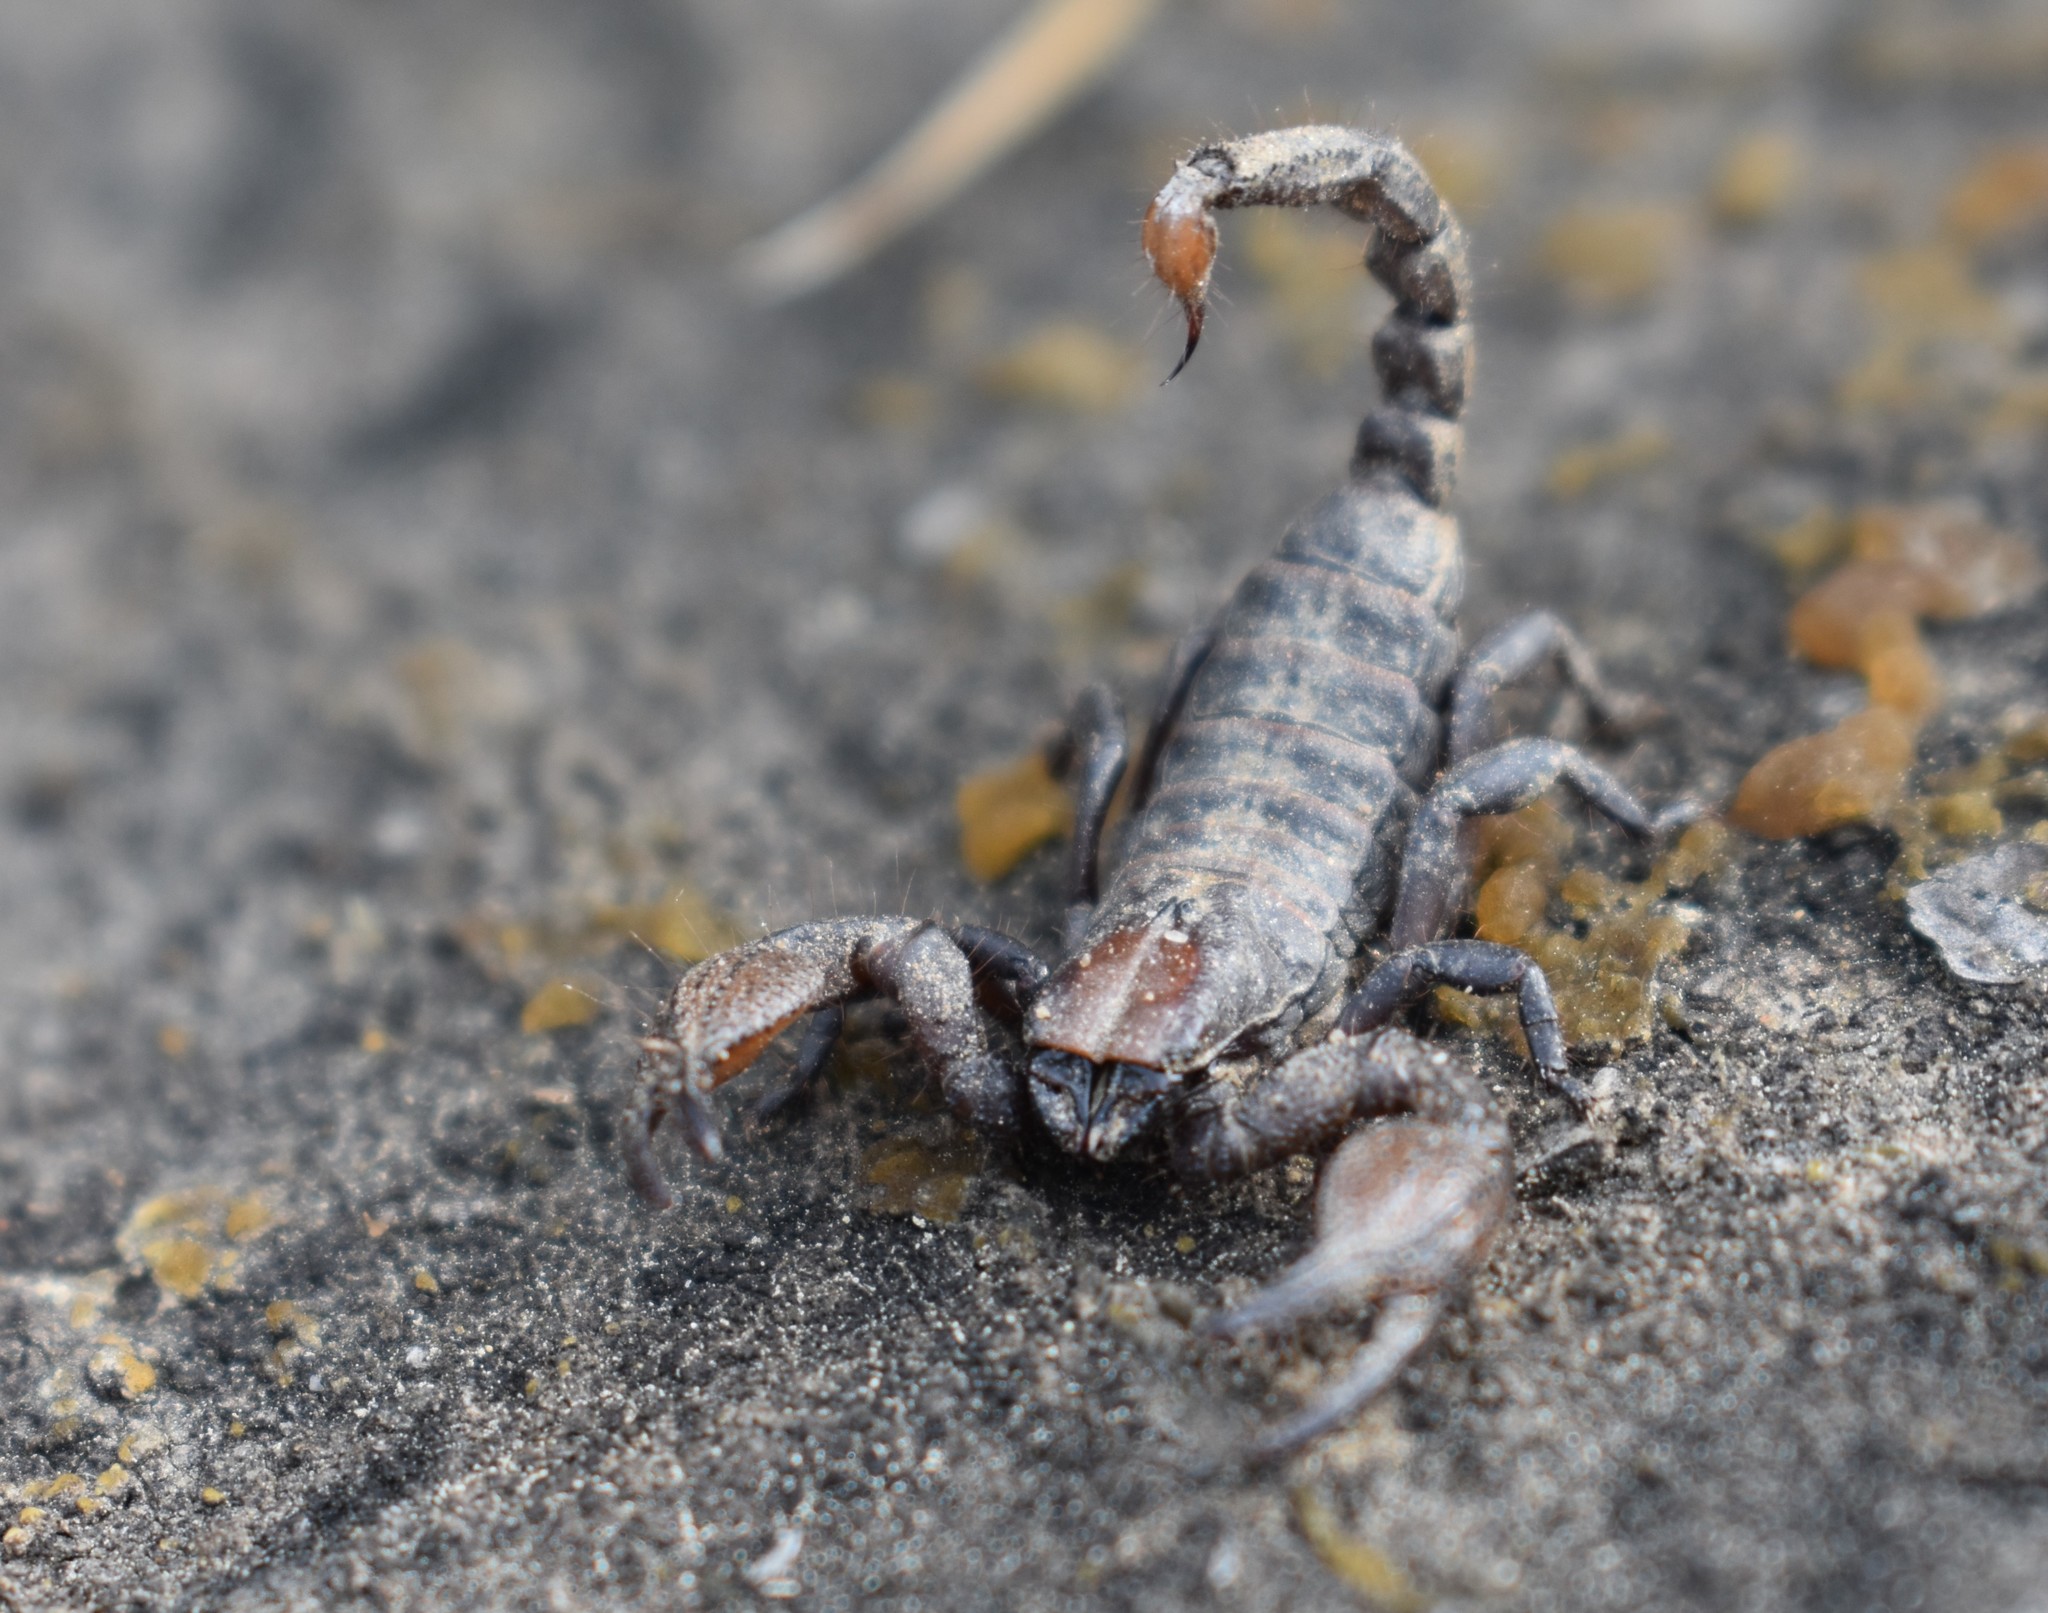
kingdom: Animalia
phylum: Arthropoda
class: Arachnida
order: Scorpiones
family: Scorpionidae
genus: Opistophthalmus
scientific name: Opistophthalmus macer
